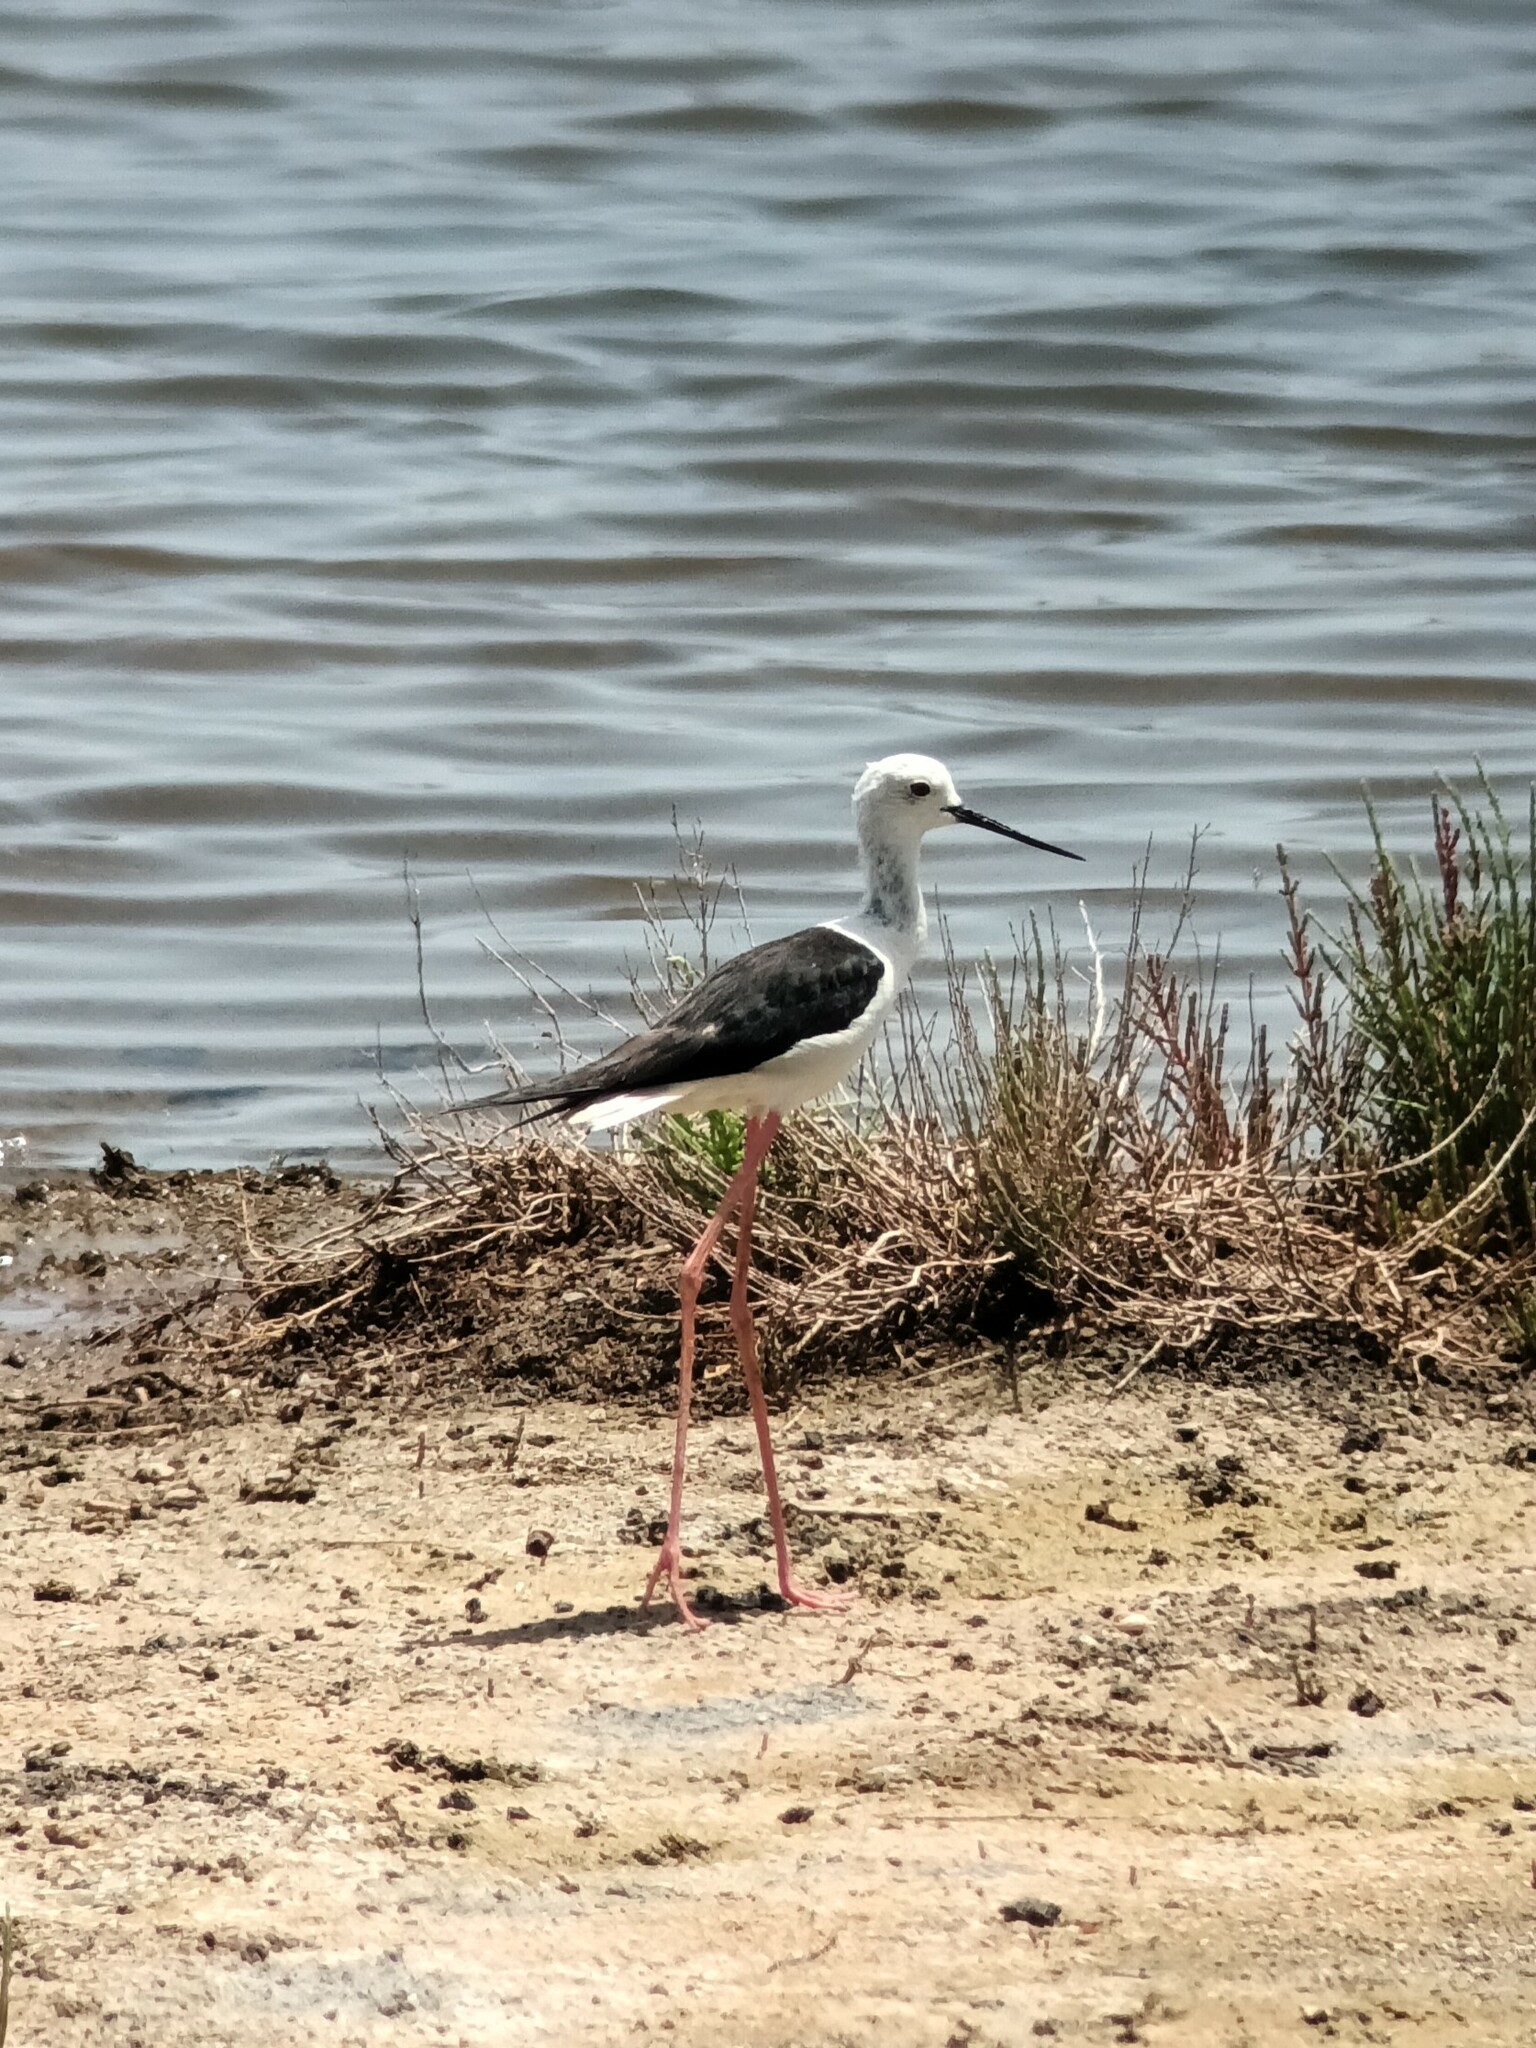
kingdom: Animalia
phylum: Chordata
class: Aves
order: Charadriiformes
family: Recurvirostridae
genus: Himantopus
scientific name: Himantopus himantopus
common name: Black-winged stilt
